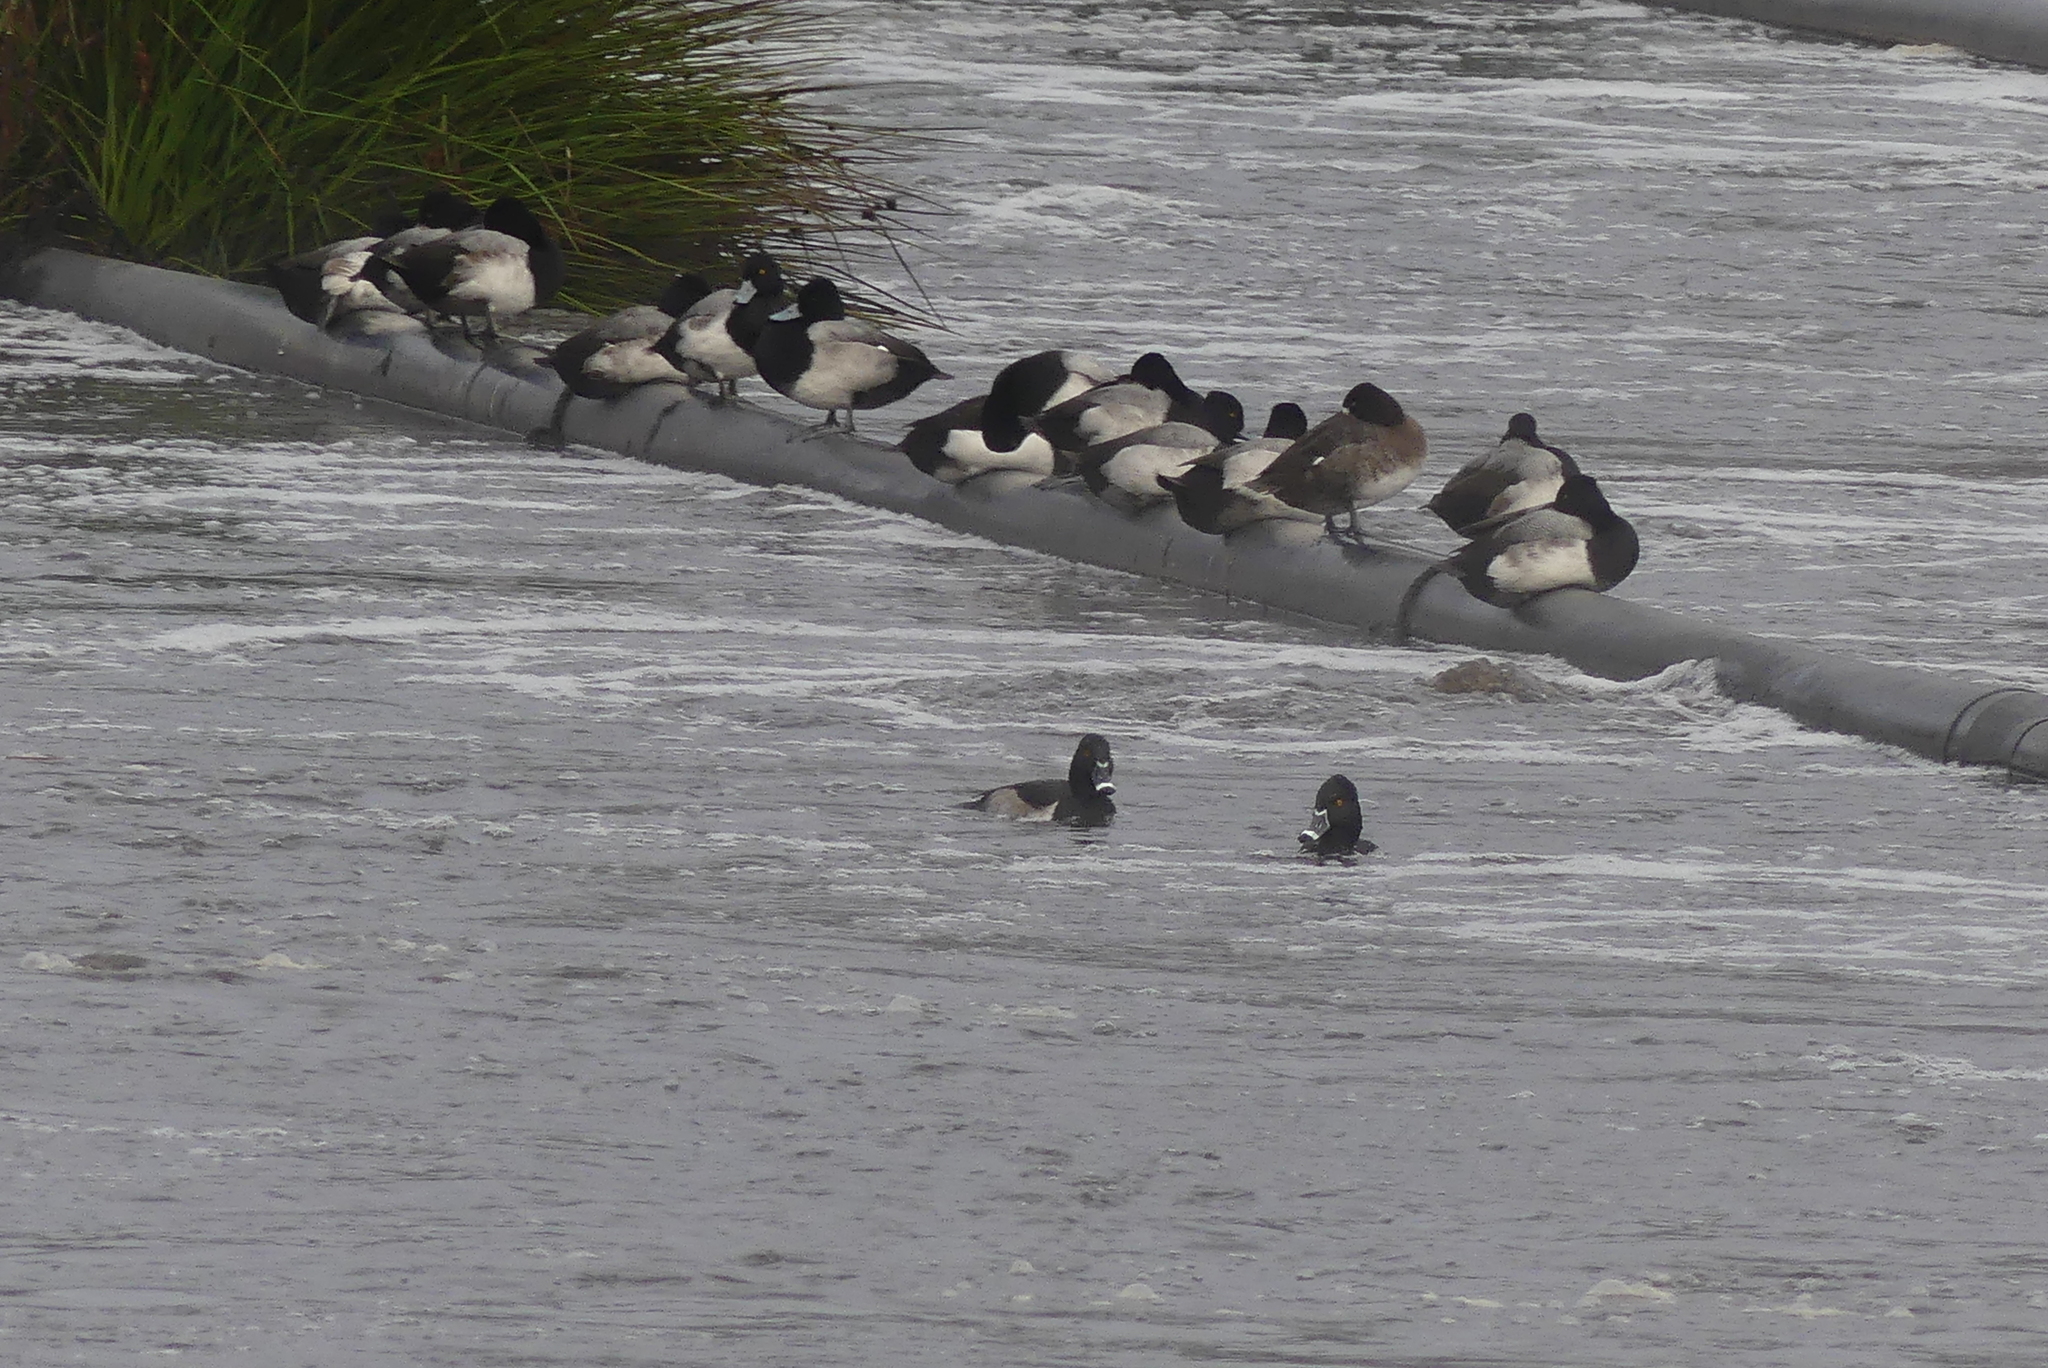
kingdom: Animalia
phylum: Chordata
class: Aves
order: Anseriformes
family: Anatidae
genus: Aythya
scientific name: Aythya collaris
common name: Ring-necked duck
